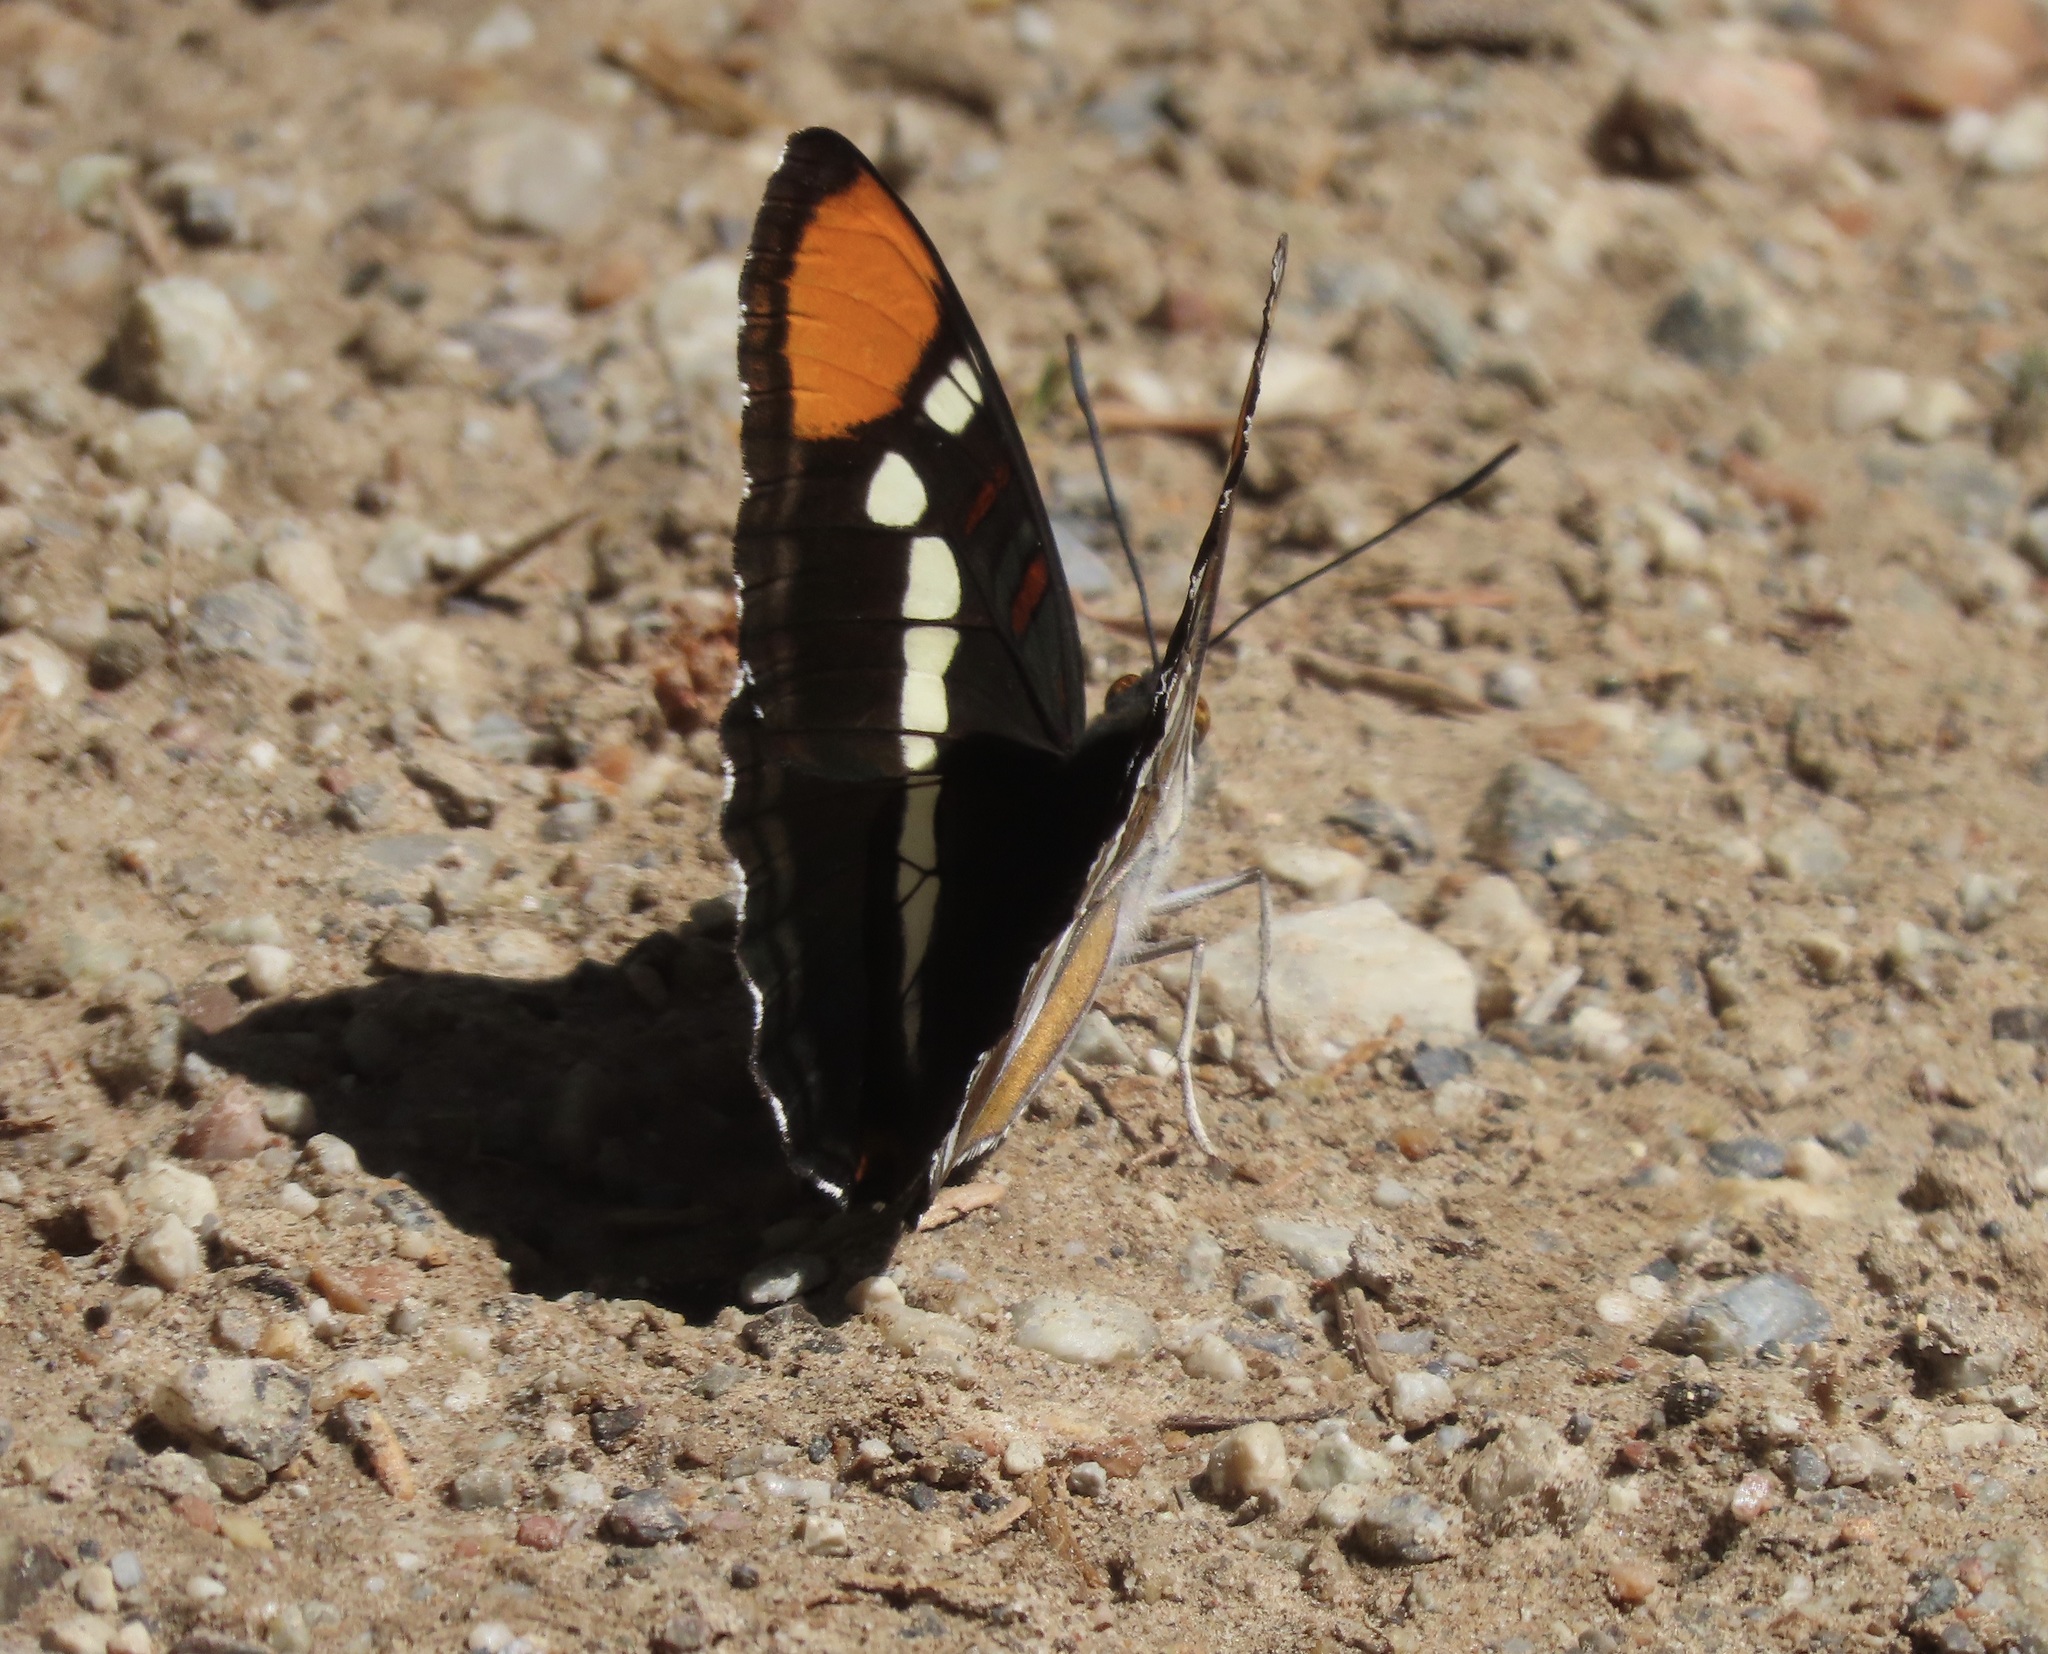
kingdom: Animalia
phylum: Arthropoda
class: Insecta
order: Lepidoptera
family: Nymphalidae
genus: Limenitis
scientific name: Limenitis bredowii
